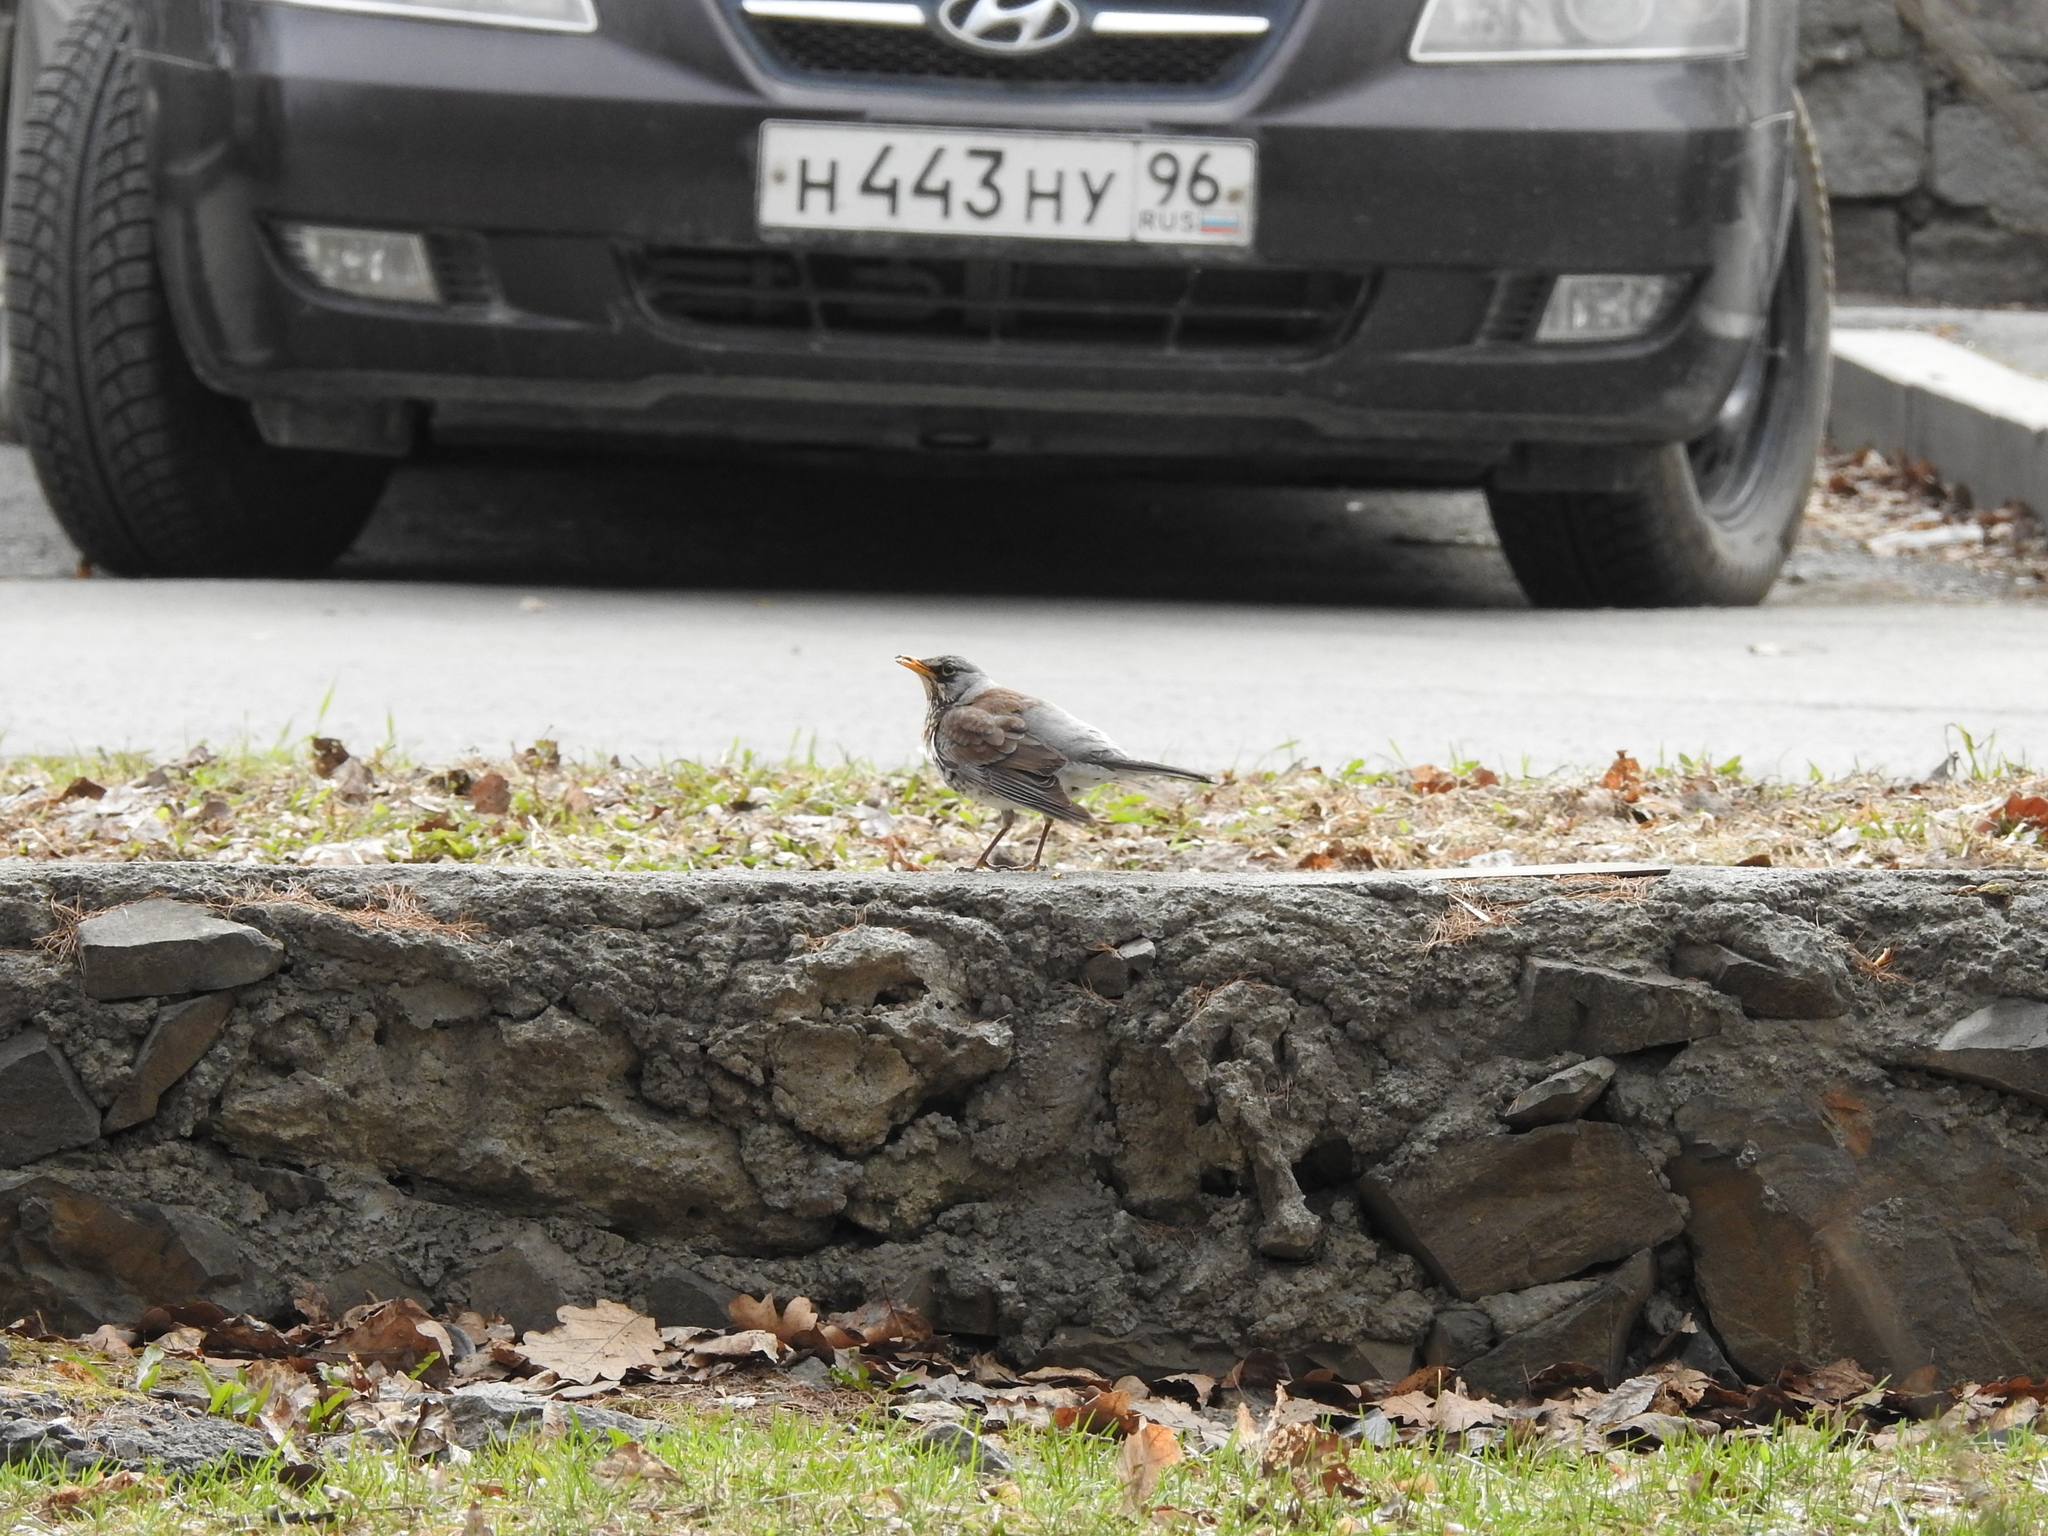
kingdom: Animalia
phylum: Chordata
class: Aves
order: Passeriformes
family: Turdidae
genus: Turdus
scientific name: Turdus pilaris
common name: Fieldfare
